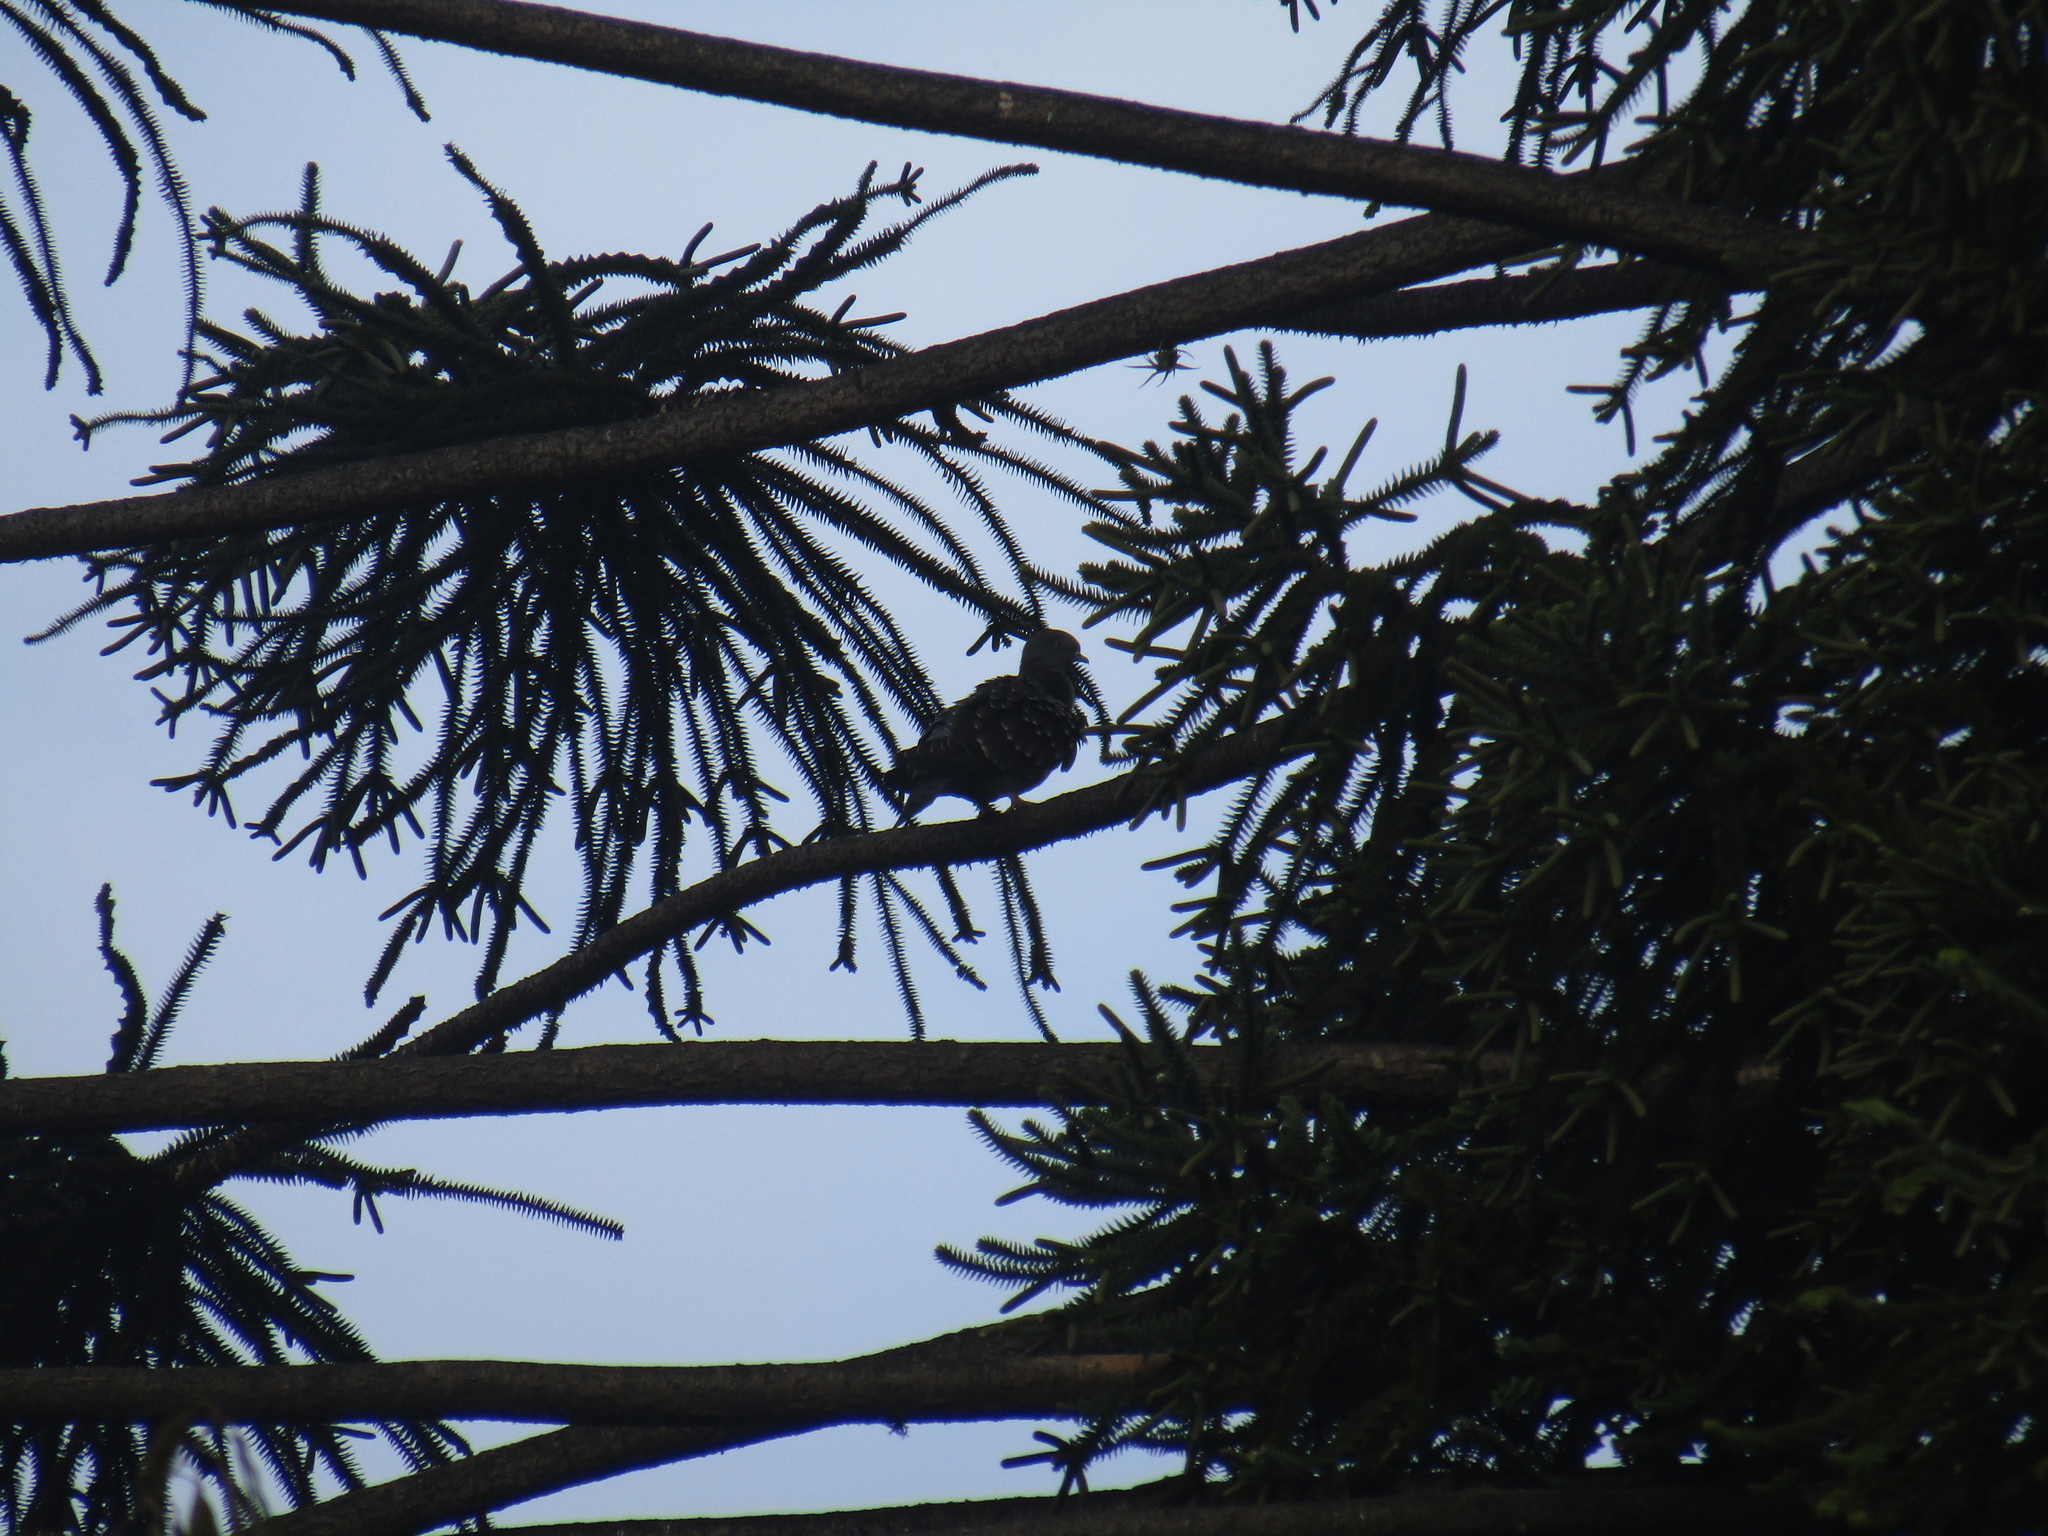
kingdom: Animalia
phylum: Chordata
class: Aves
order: Columbiformes
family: Columbidae
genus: Patagioenas
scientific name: Patagioenas maculosa
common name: Spot-winged pigeon
